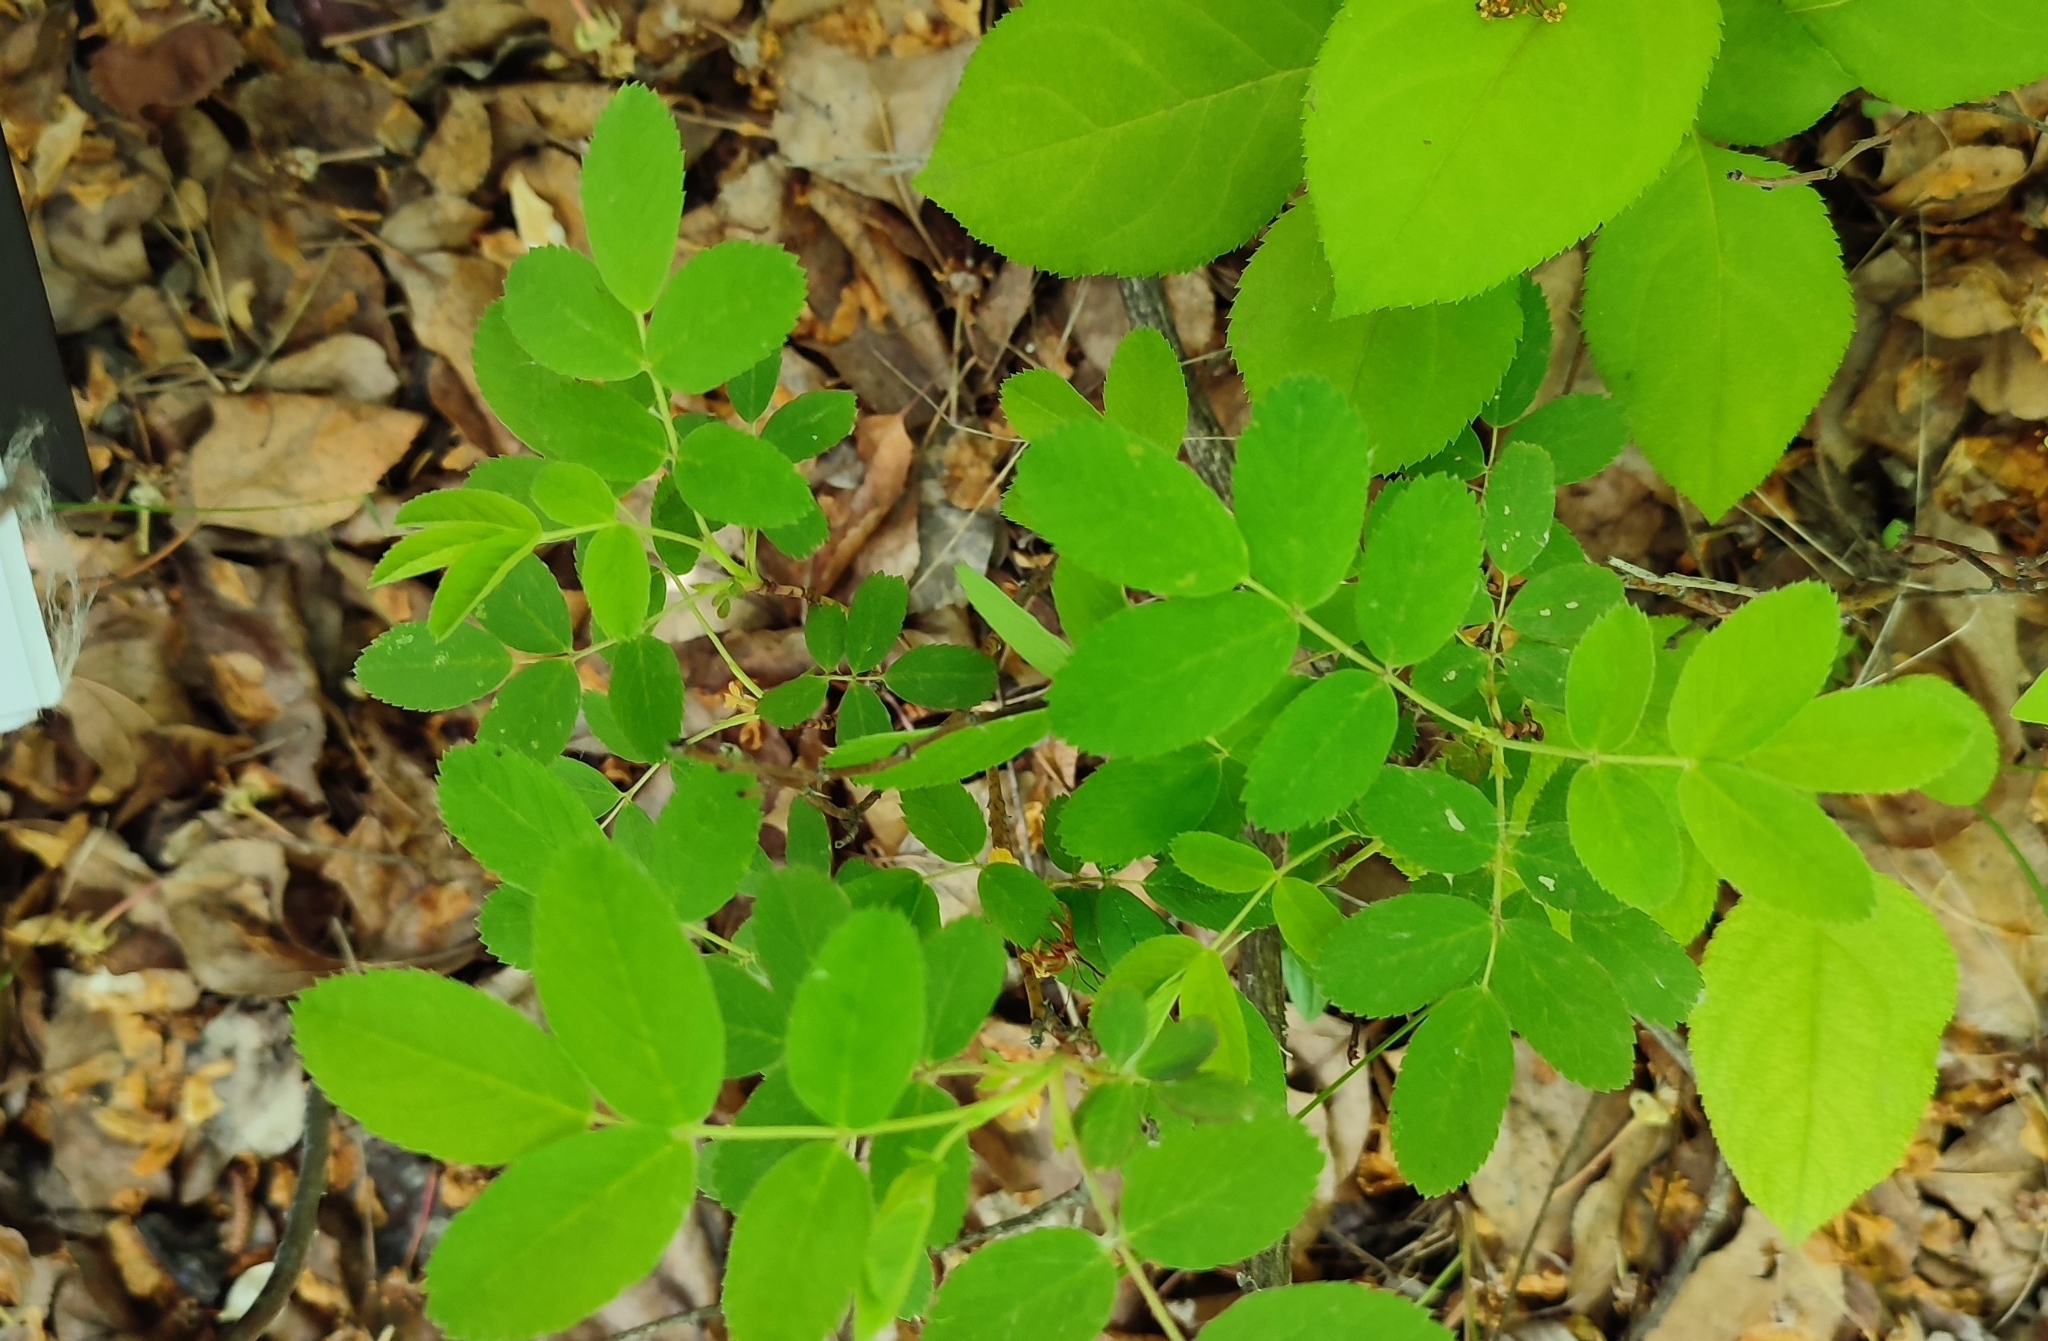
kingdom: Plantae
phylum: Tracheophyta
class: Magnoliopsida
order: Rosales
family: Rosaceae
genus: Rosa
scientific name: Rosa majalis
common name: Cinnamon rose
